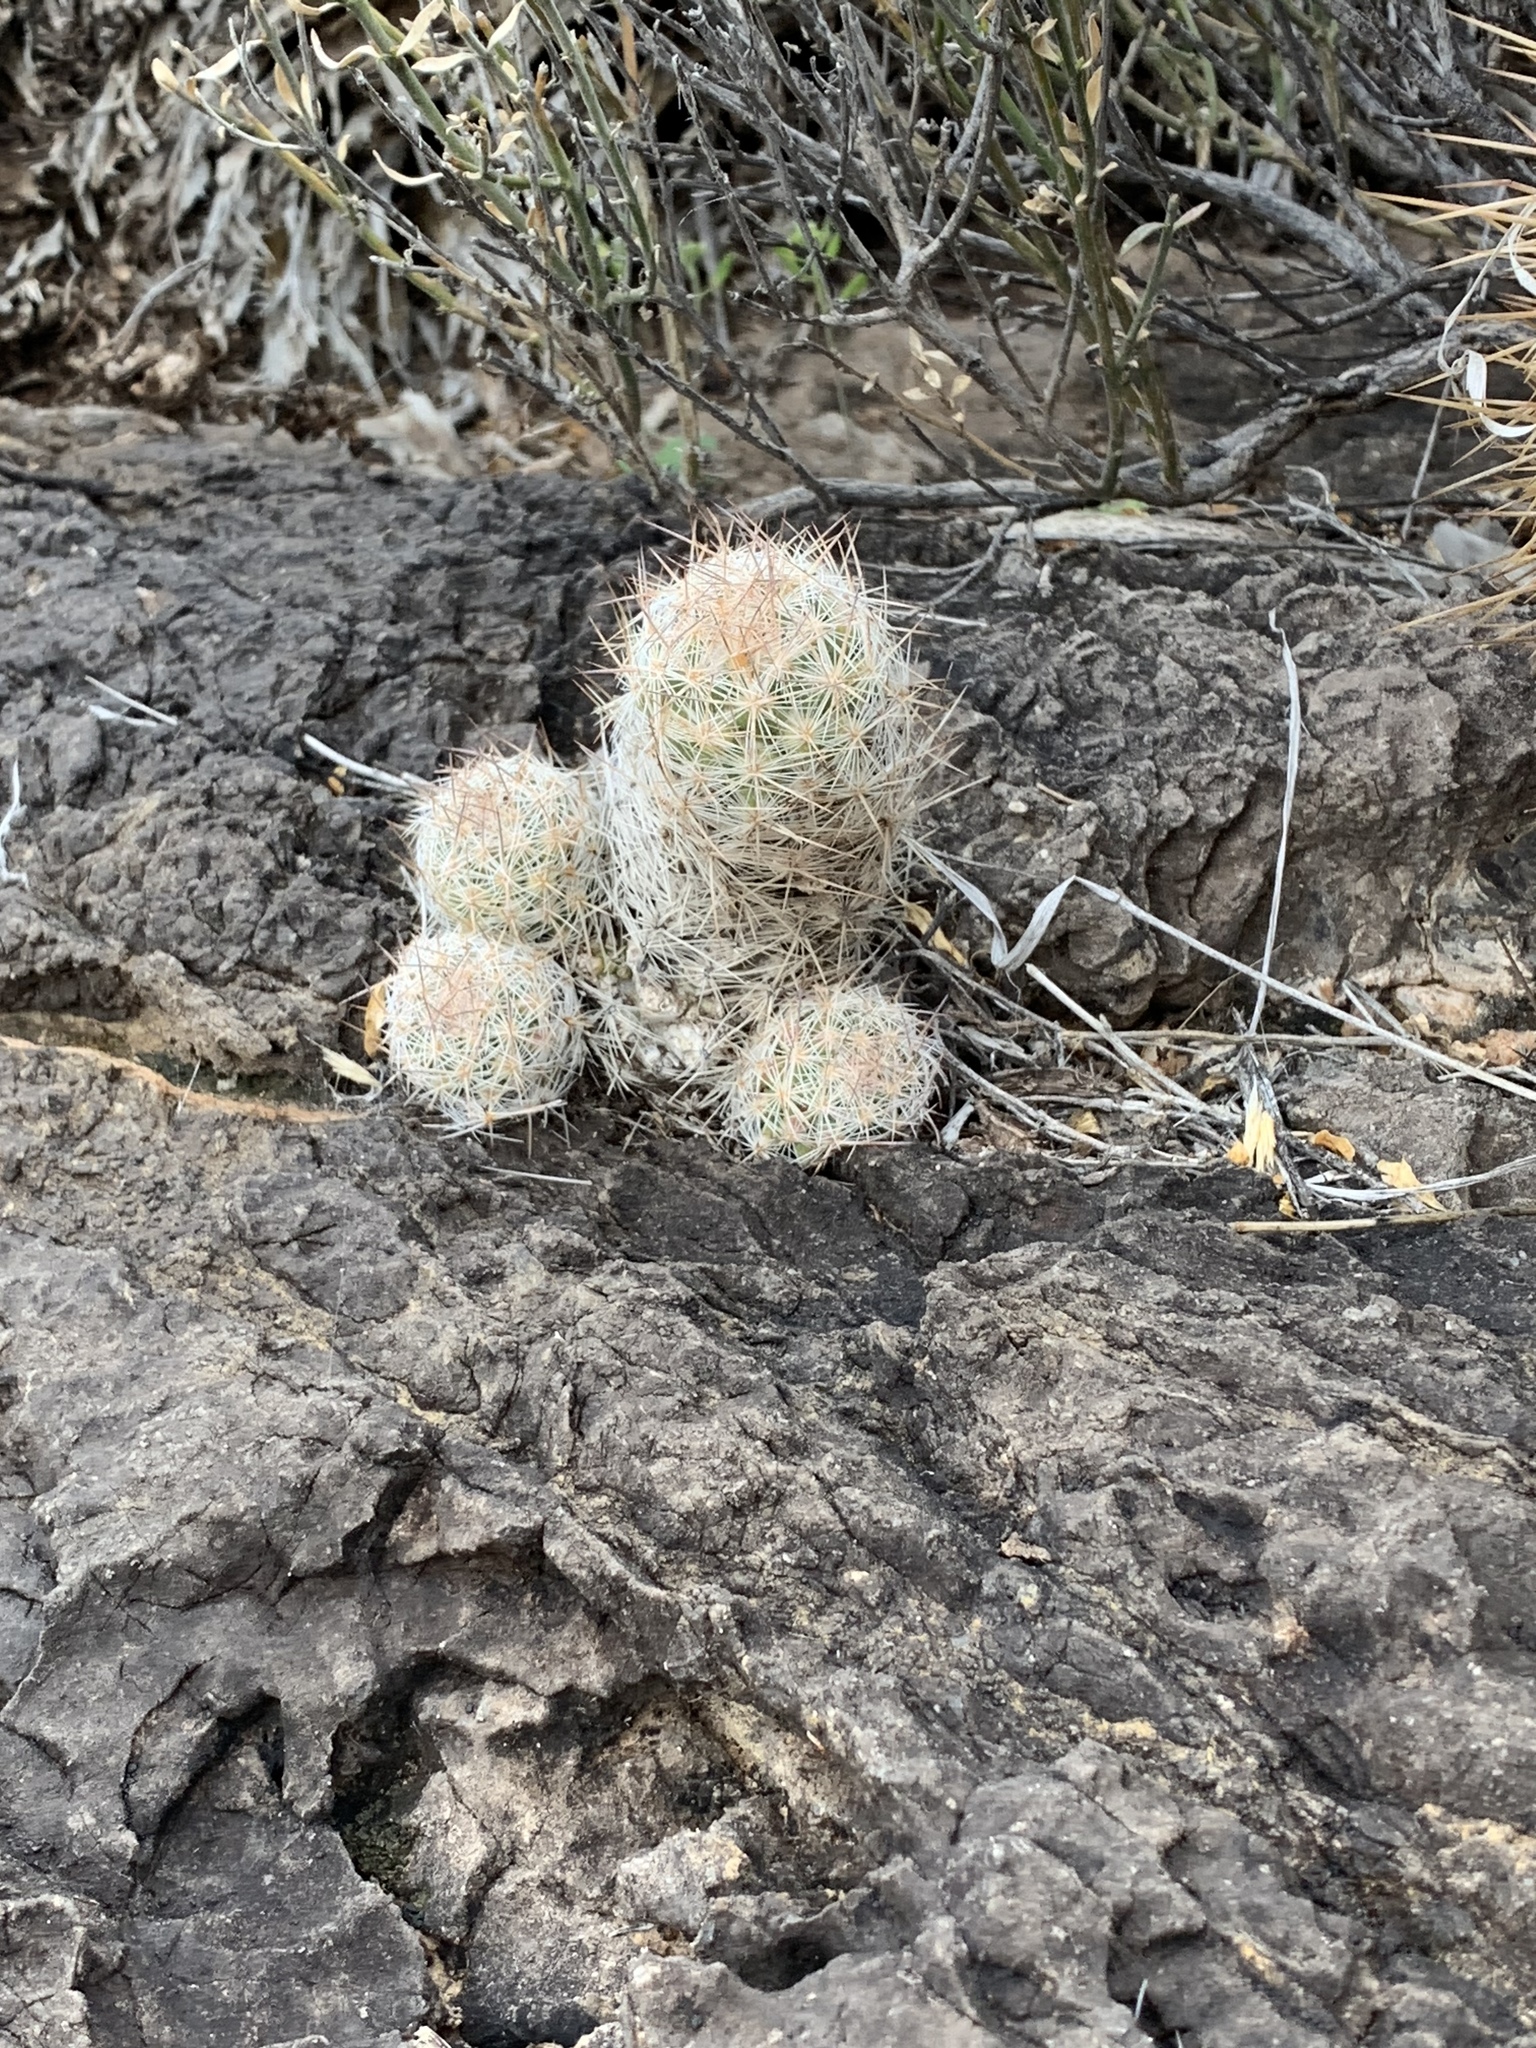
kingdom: Plantae
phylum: Tracheophyta
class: Magnoliopsida
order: Caryophyllales
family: Cactaceae
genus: Pelecyphora
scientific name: Pelecyphora tuberculosa
